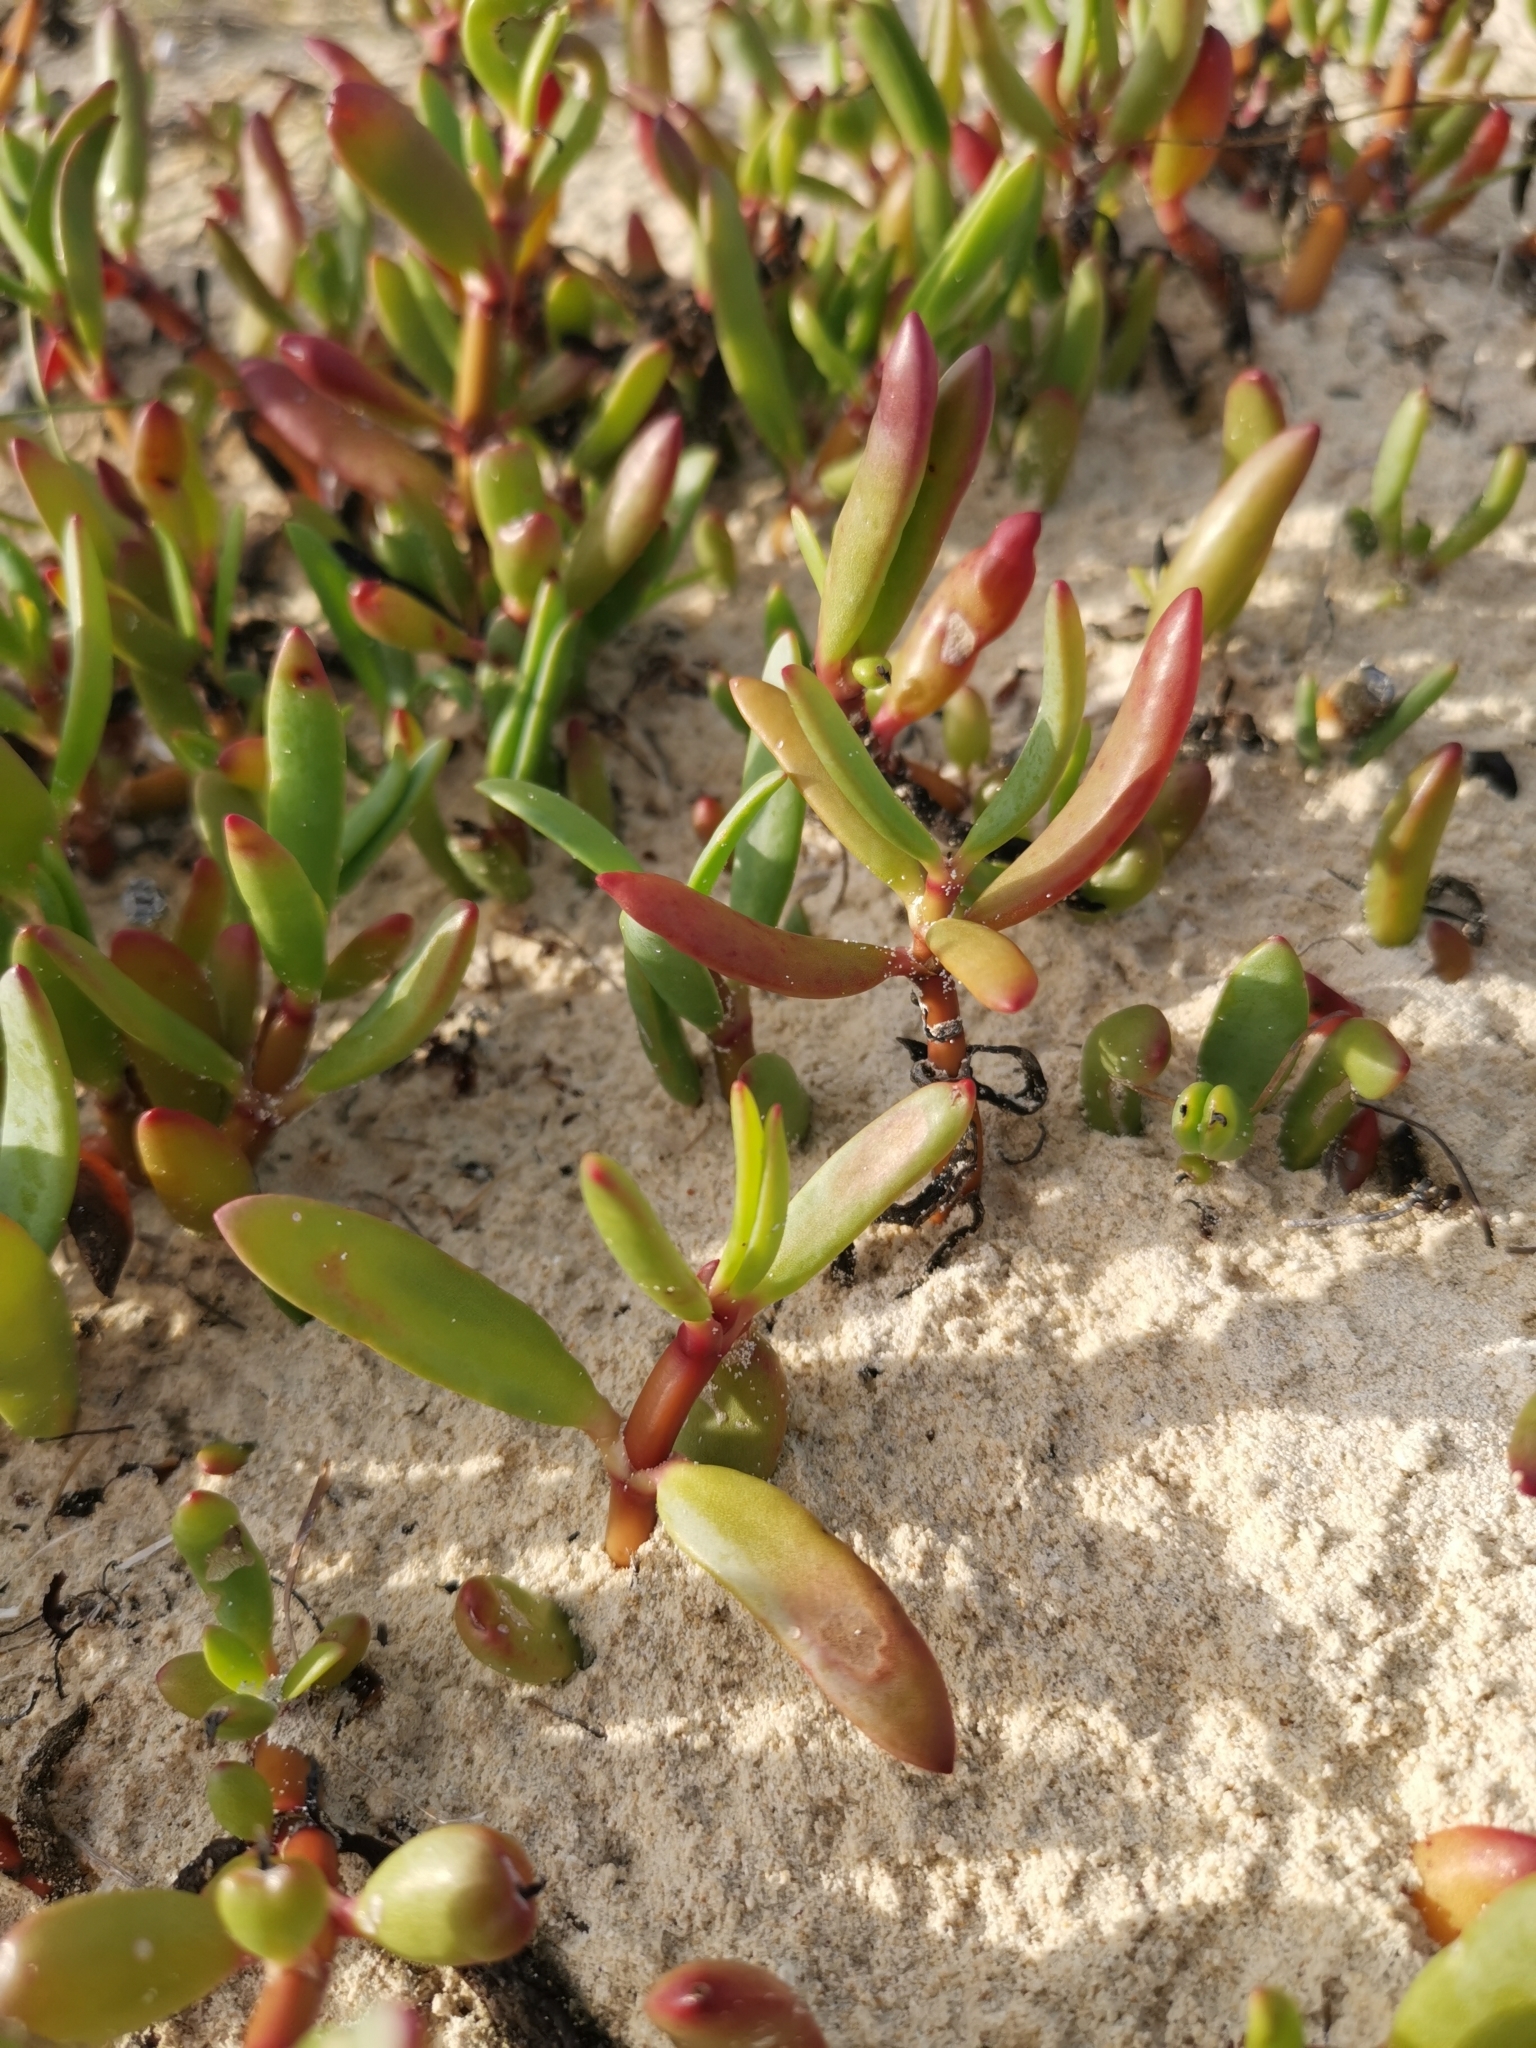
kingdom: Plantae
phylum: Tracheophyta
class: Magnoliopsida
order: Caryophyllales
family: Aizoaceae
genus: Sesuvium
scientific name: Sesuvium portulacastrum
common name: Sea-purslane
